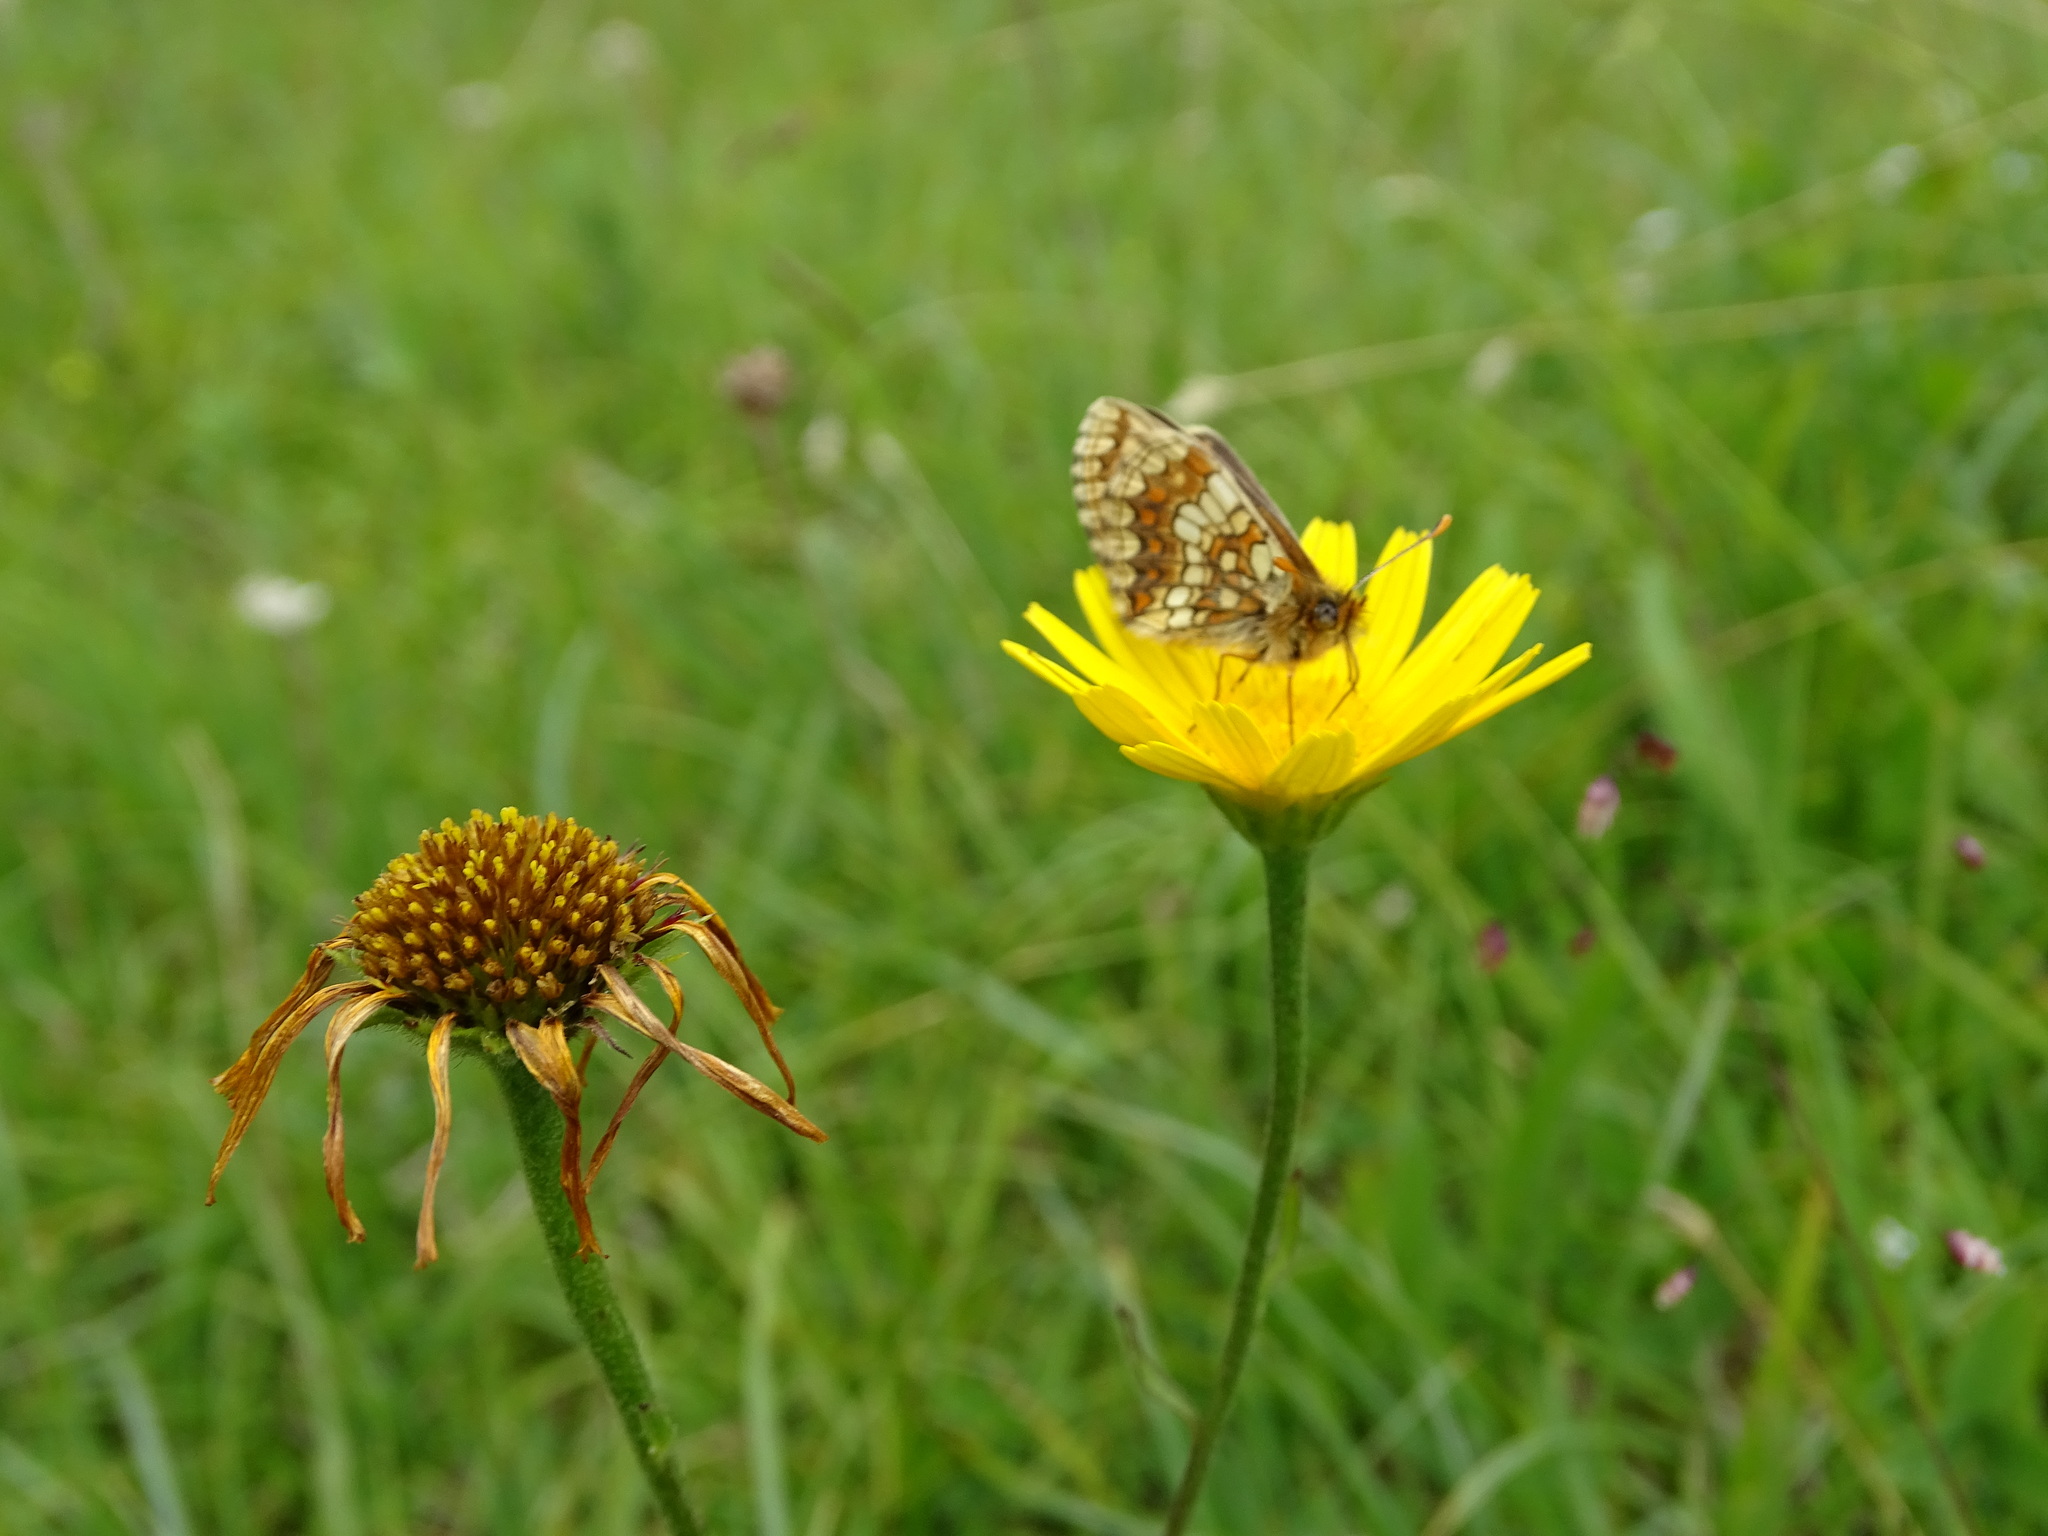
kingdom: Animalia
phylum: Arthropoda
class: Insecta
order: Lepidoptera
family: Nymphalidae
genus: Mellicta
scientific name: Mellicta aurelia
